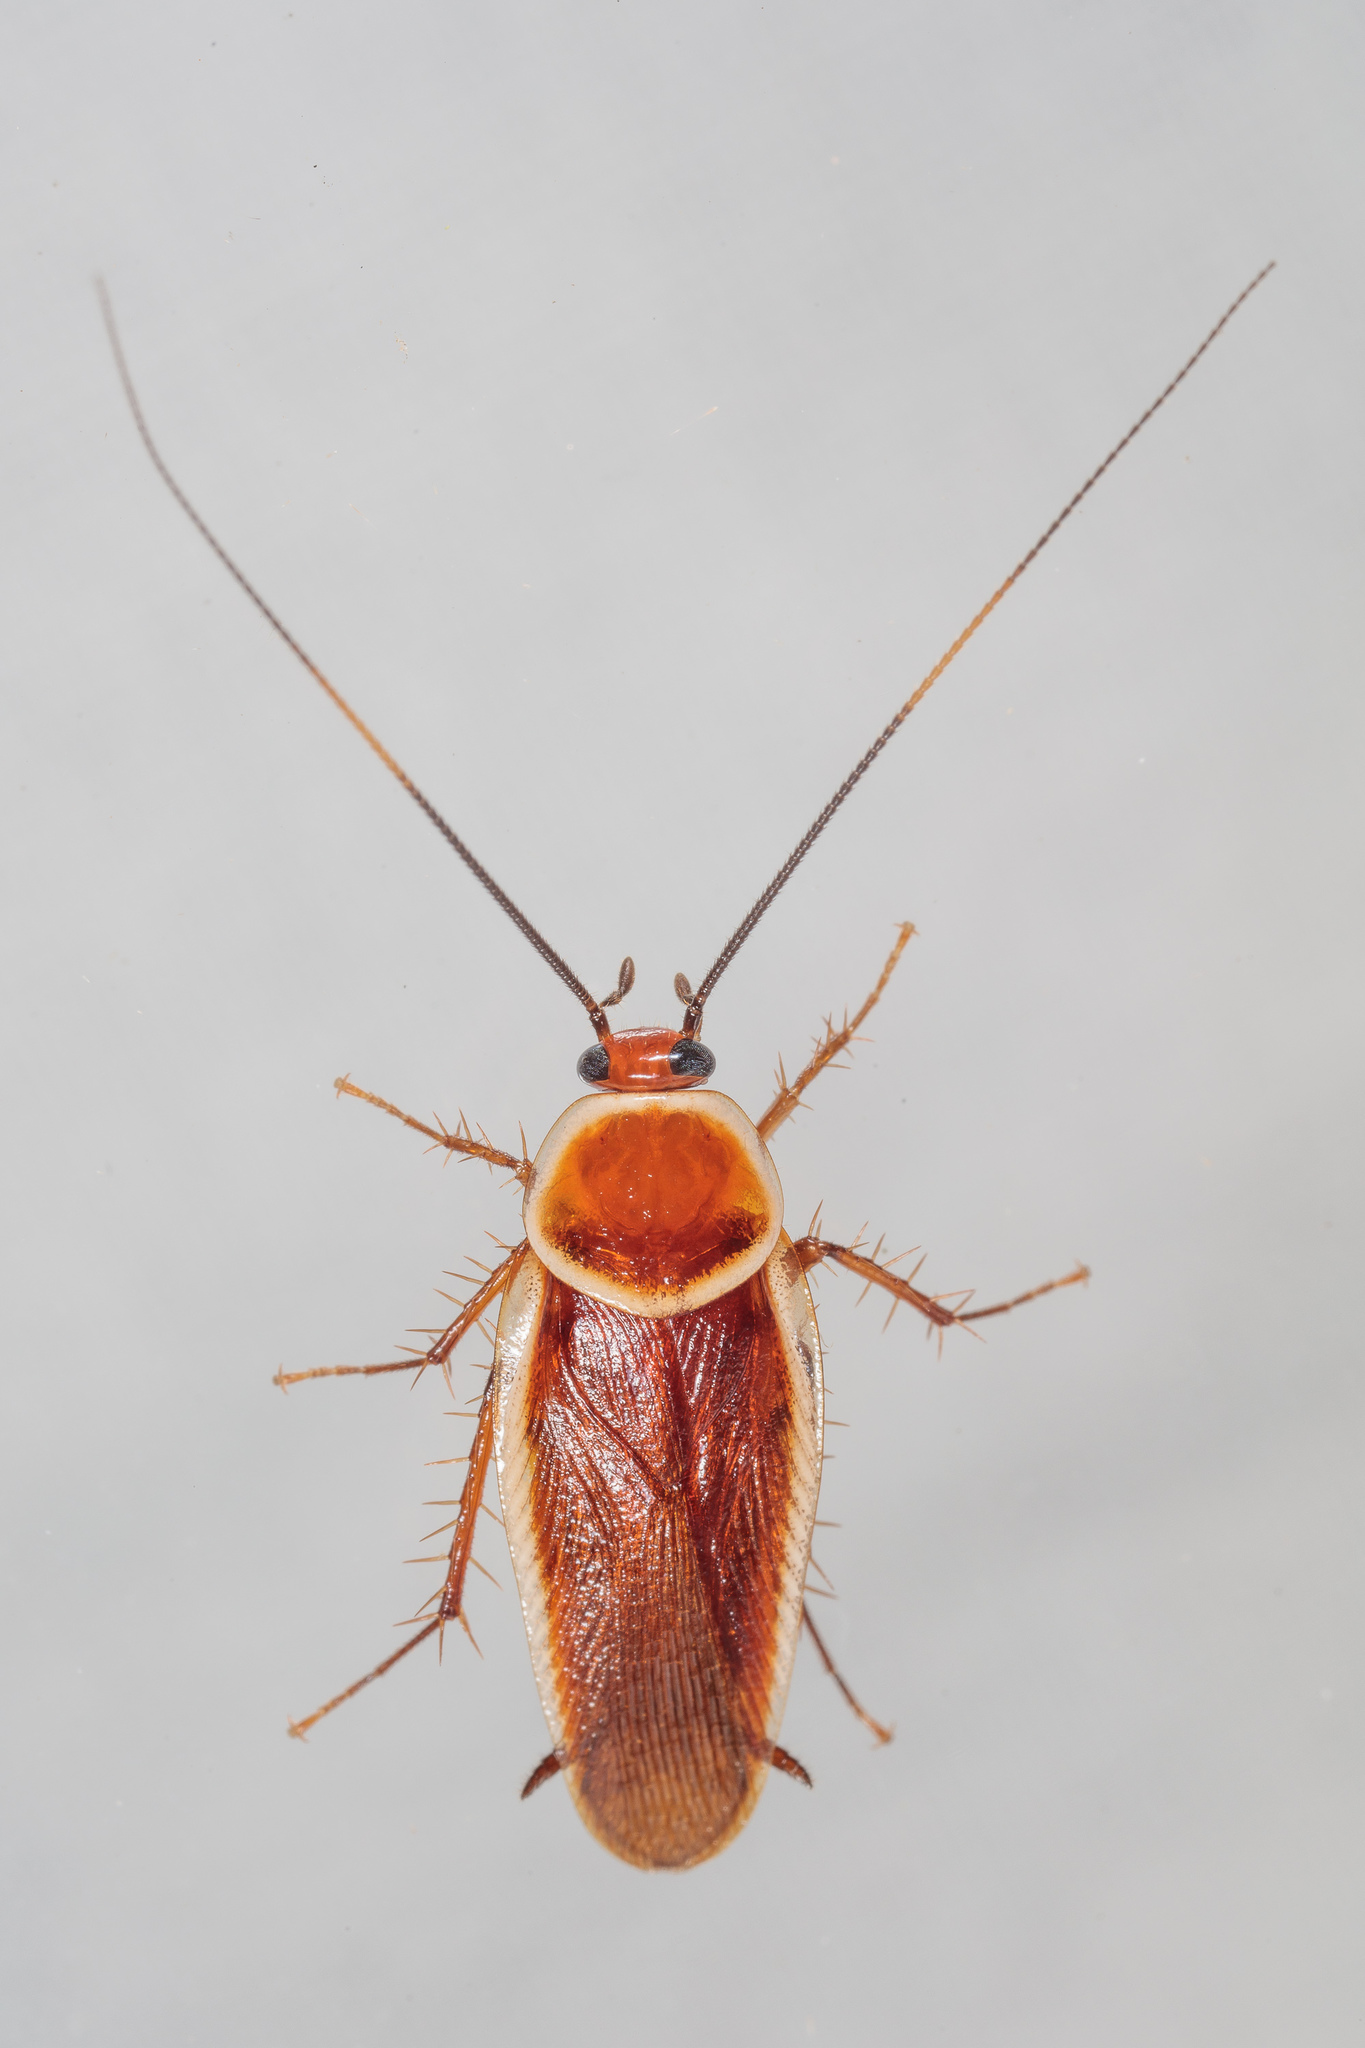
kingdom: Animalia
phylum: Arthropoda
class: Insecta
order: Blattodea
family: Ectobiidae
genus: Pseudomops
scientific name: Pseudomops septentrionalis
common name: Pale-bordered field cockroach
